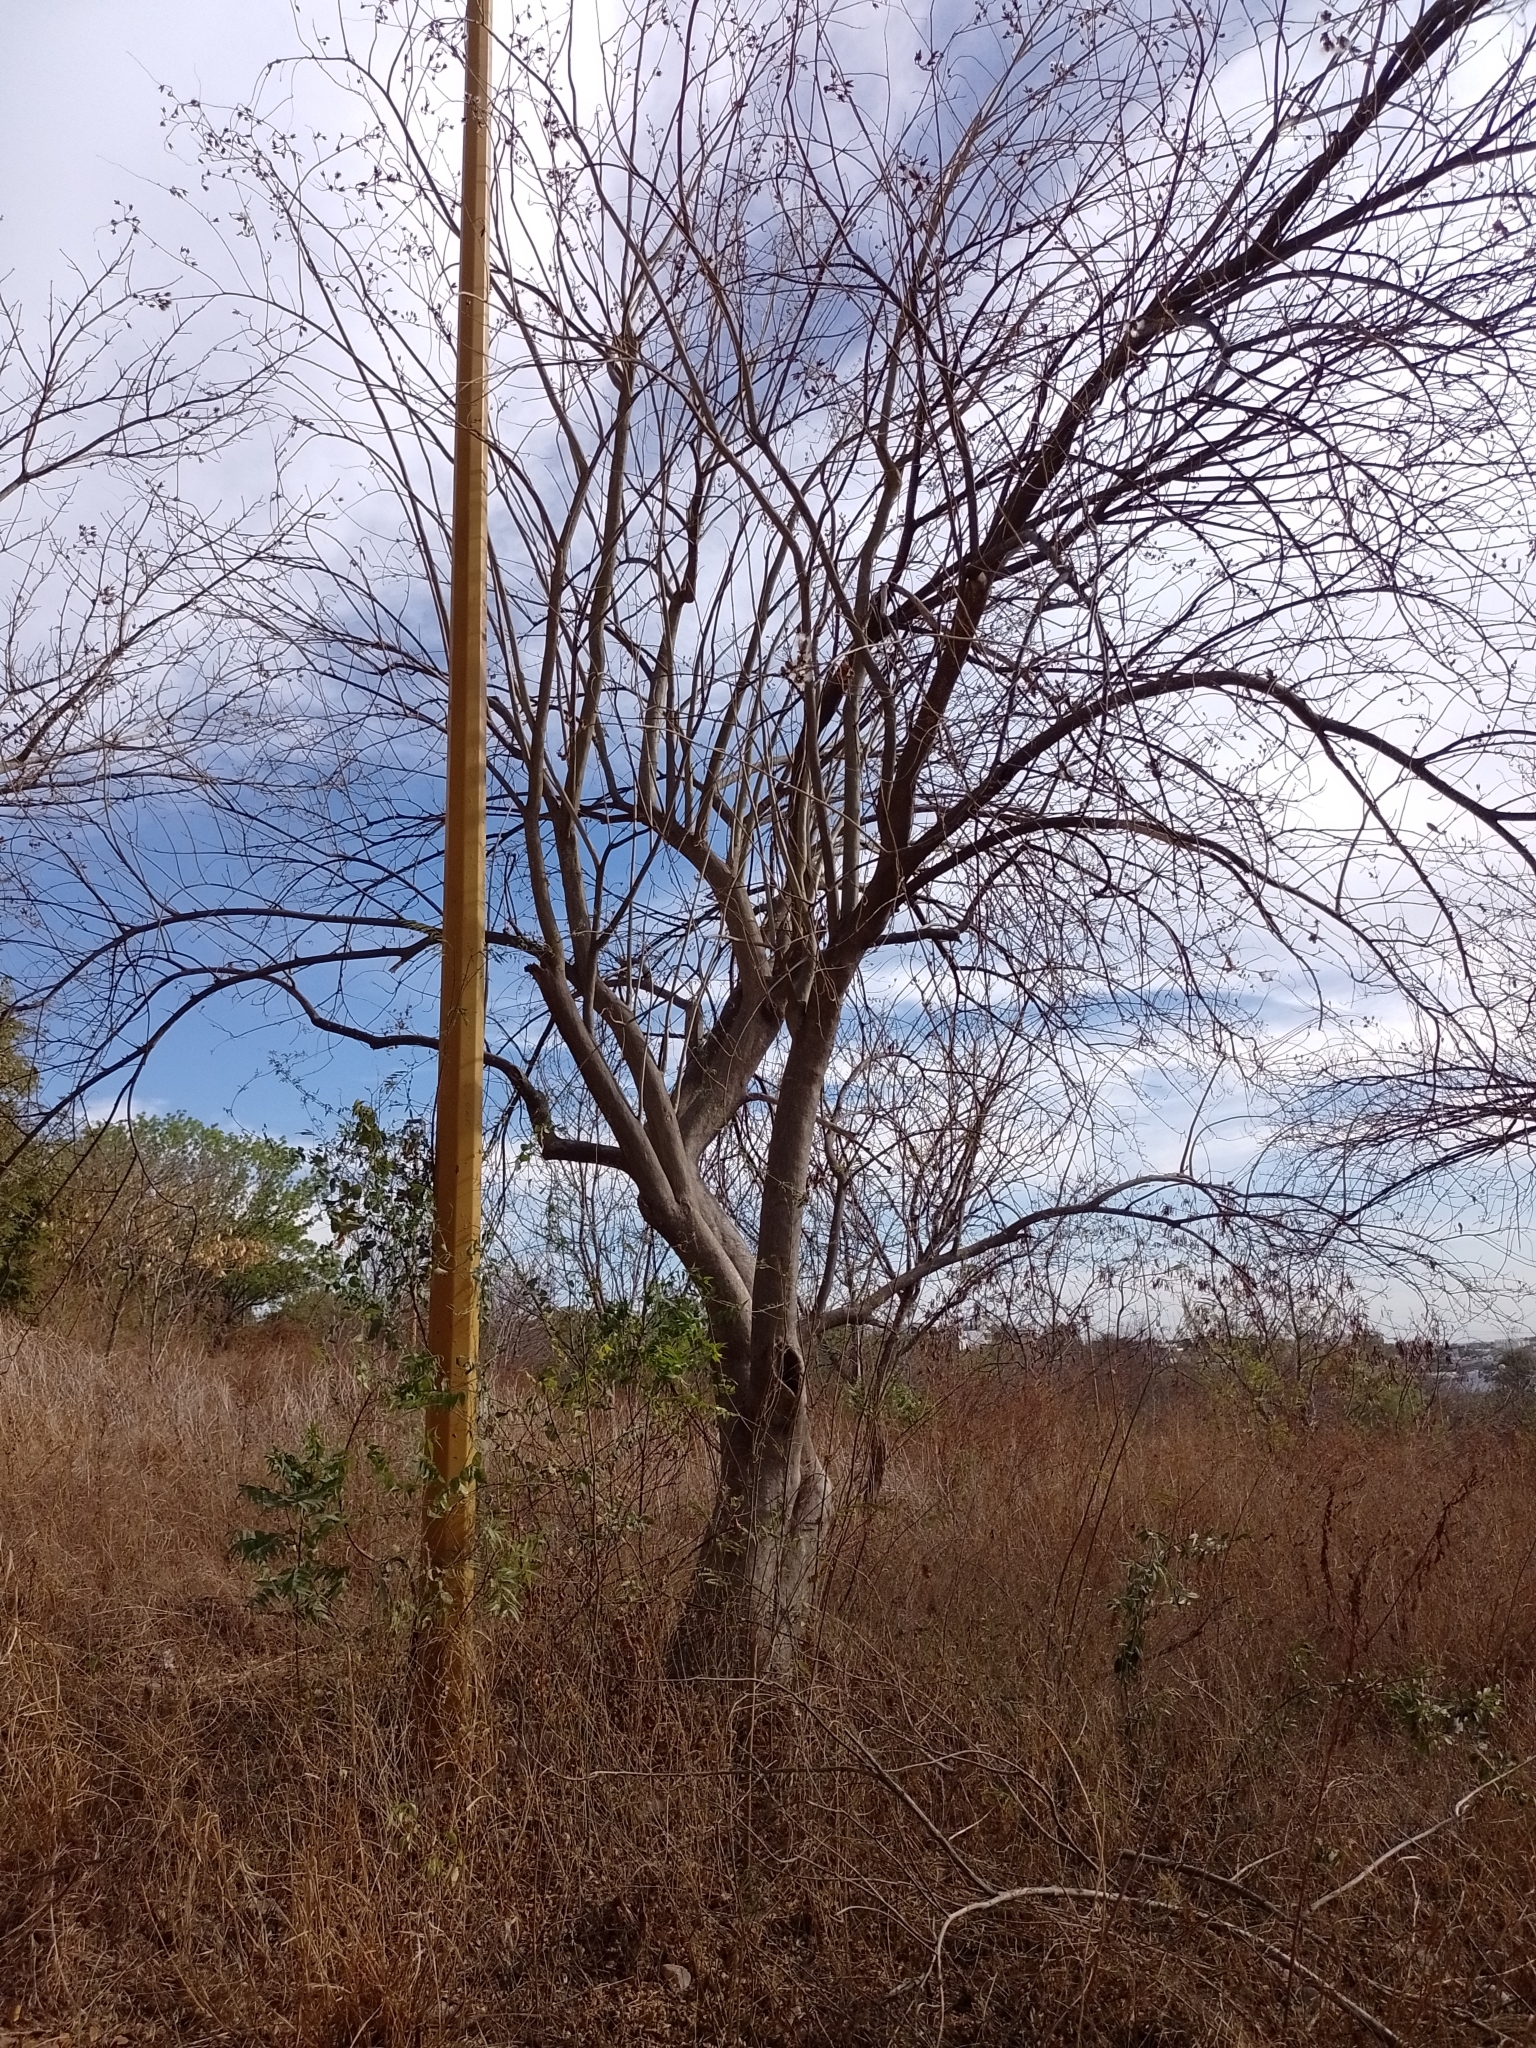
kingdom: Plantae
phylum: Tracheophyta
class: Magnoliopsida
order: Solanales
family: Convolvulaceae
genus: Ipomoea
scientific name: Ipomoea arborescens
